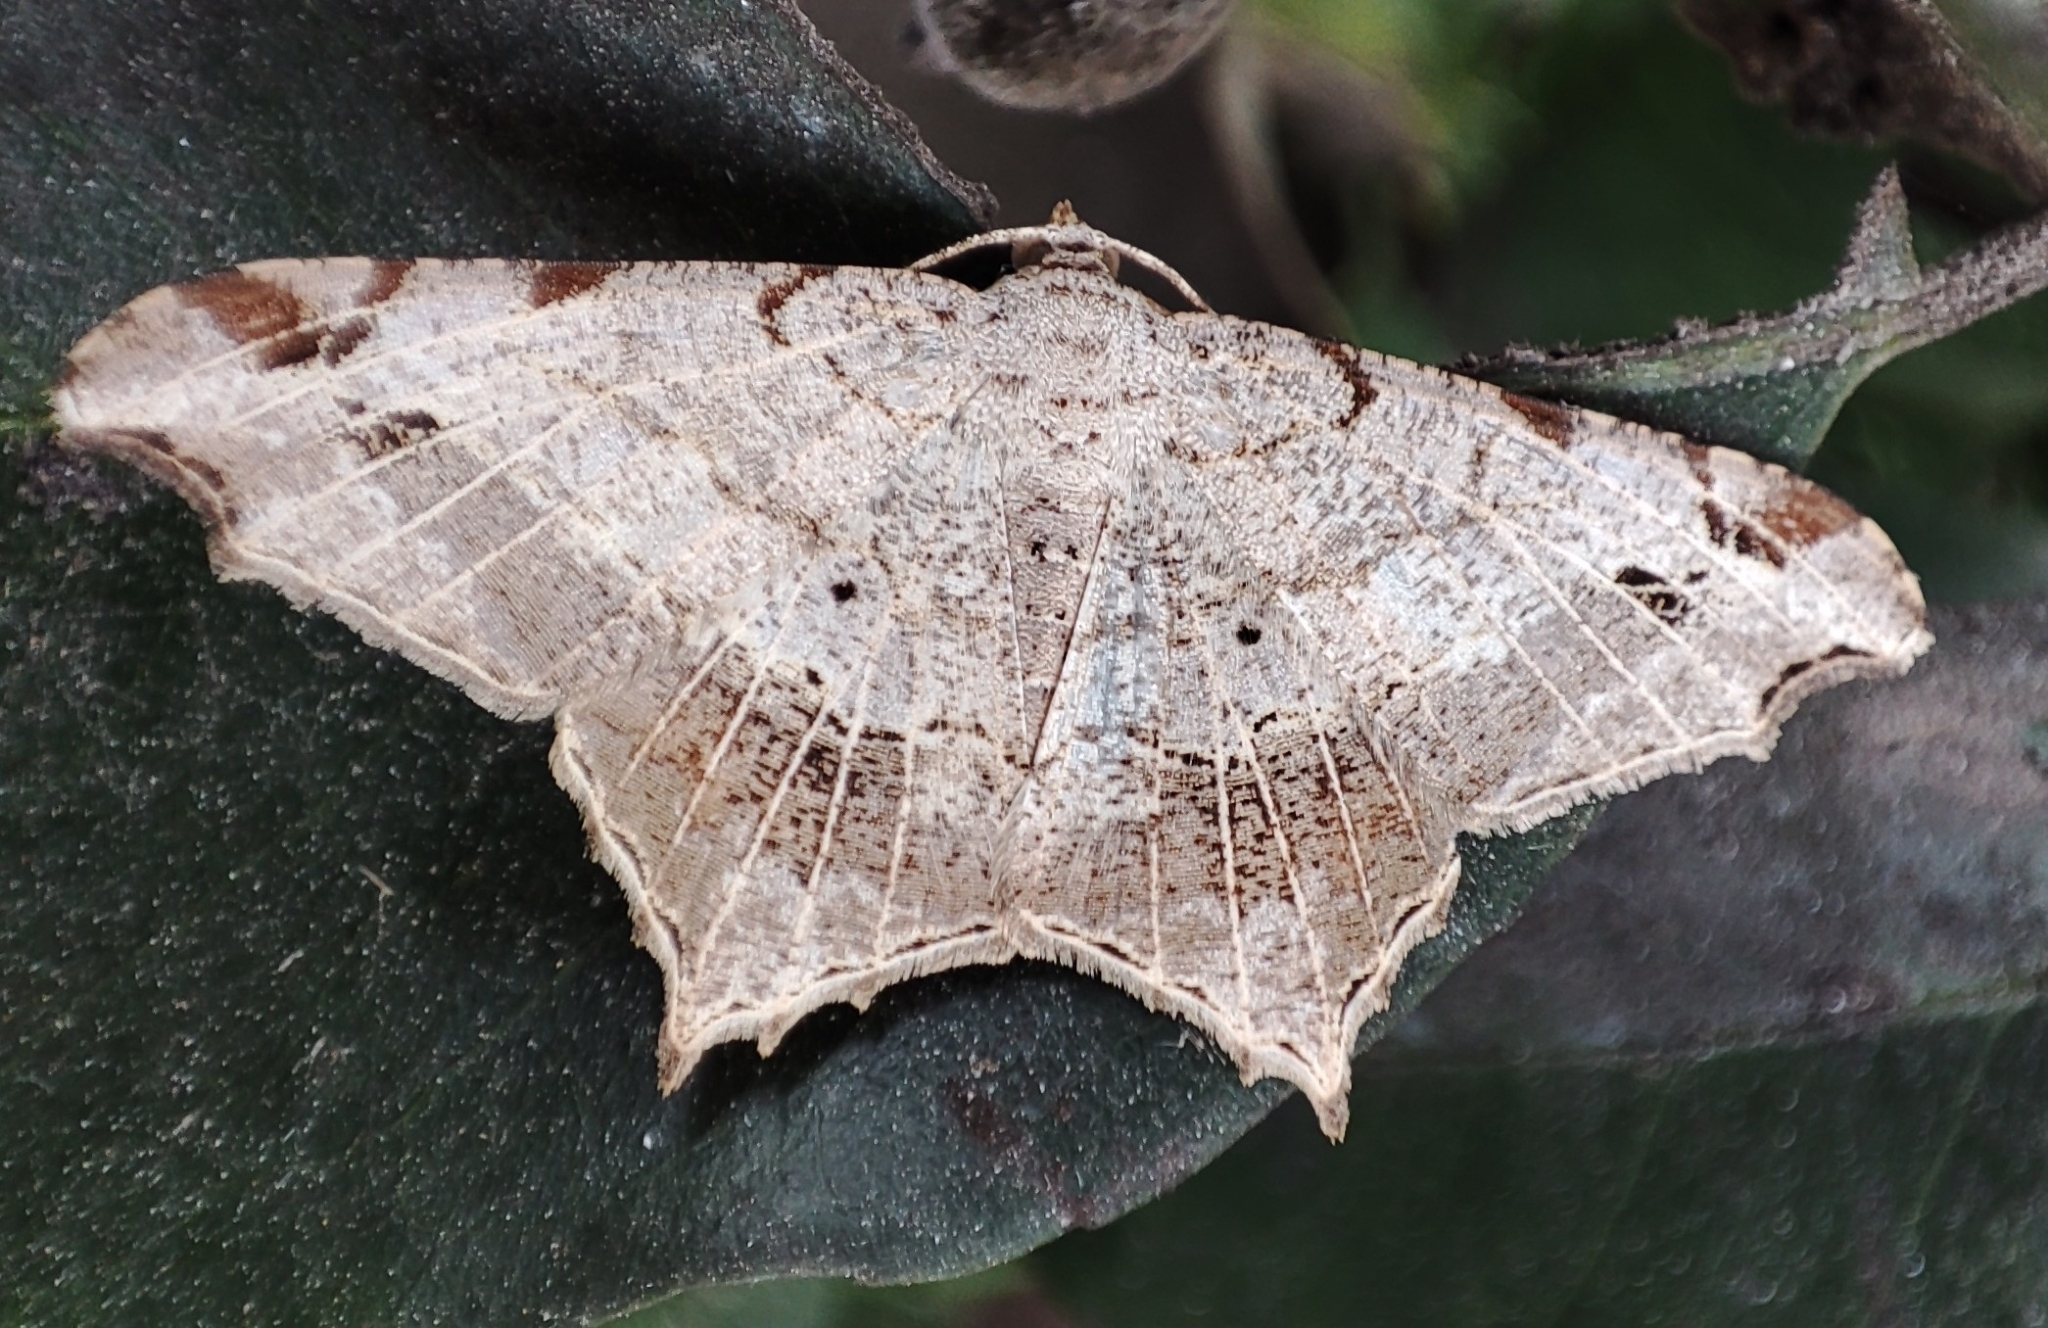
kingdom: Animalia
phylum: Arthropoda
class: Insecta
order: Lepidoptera
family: Geometridae
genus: Chiasmia
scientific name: Chiasmia emersaria
